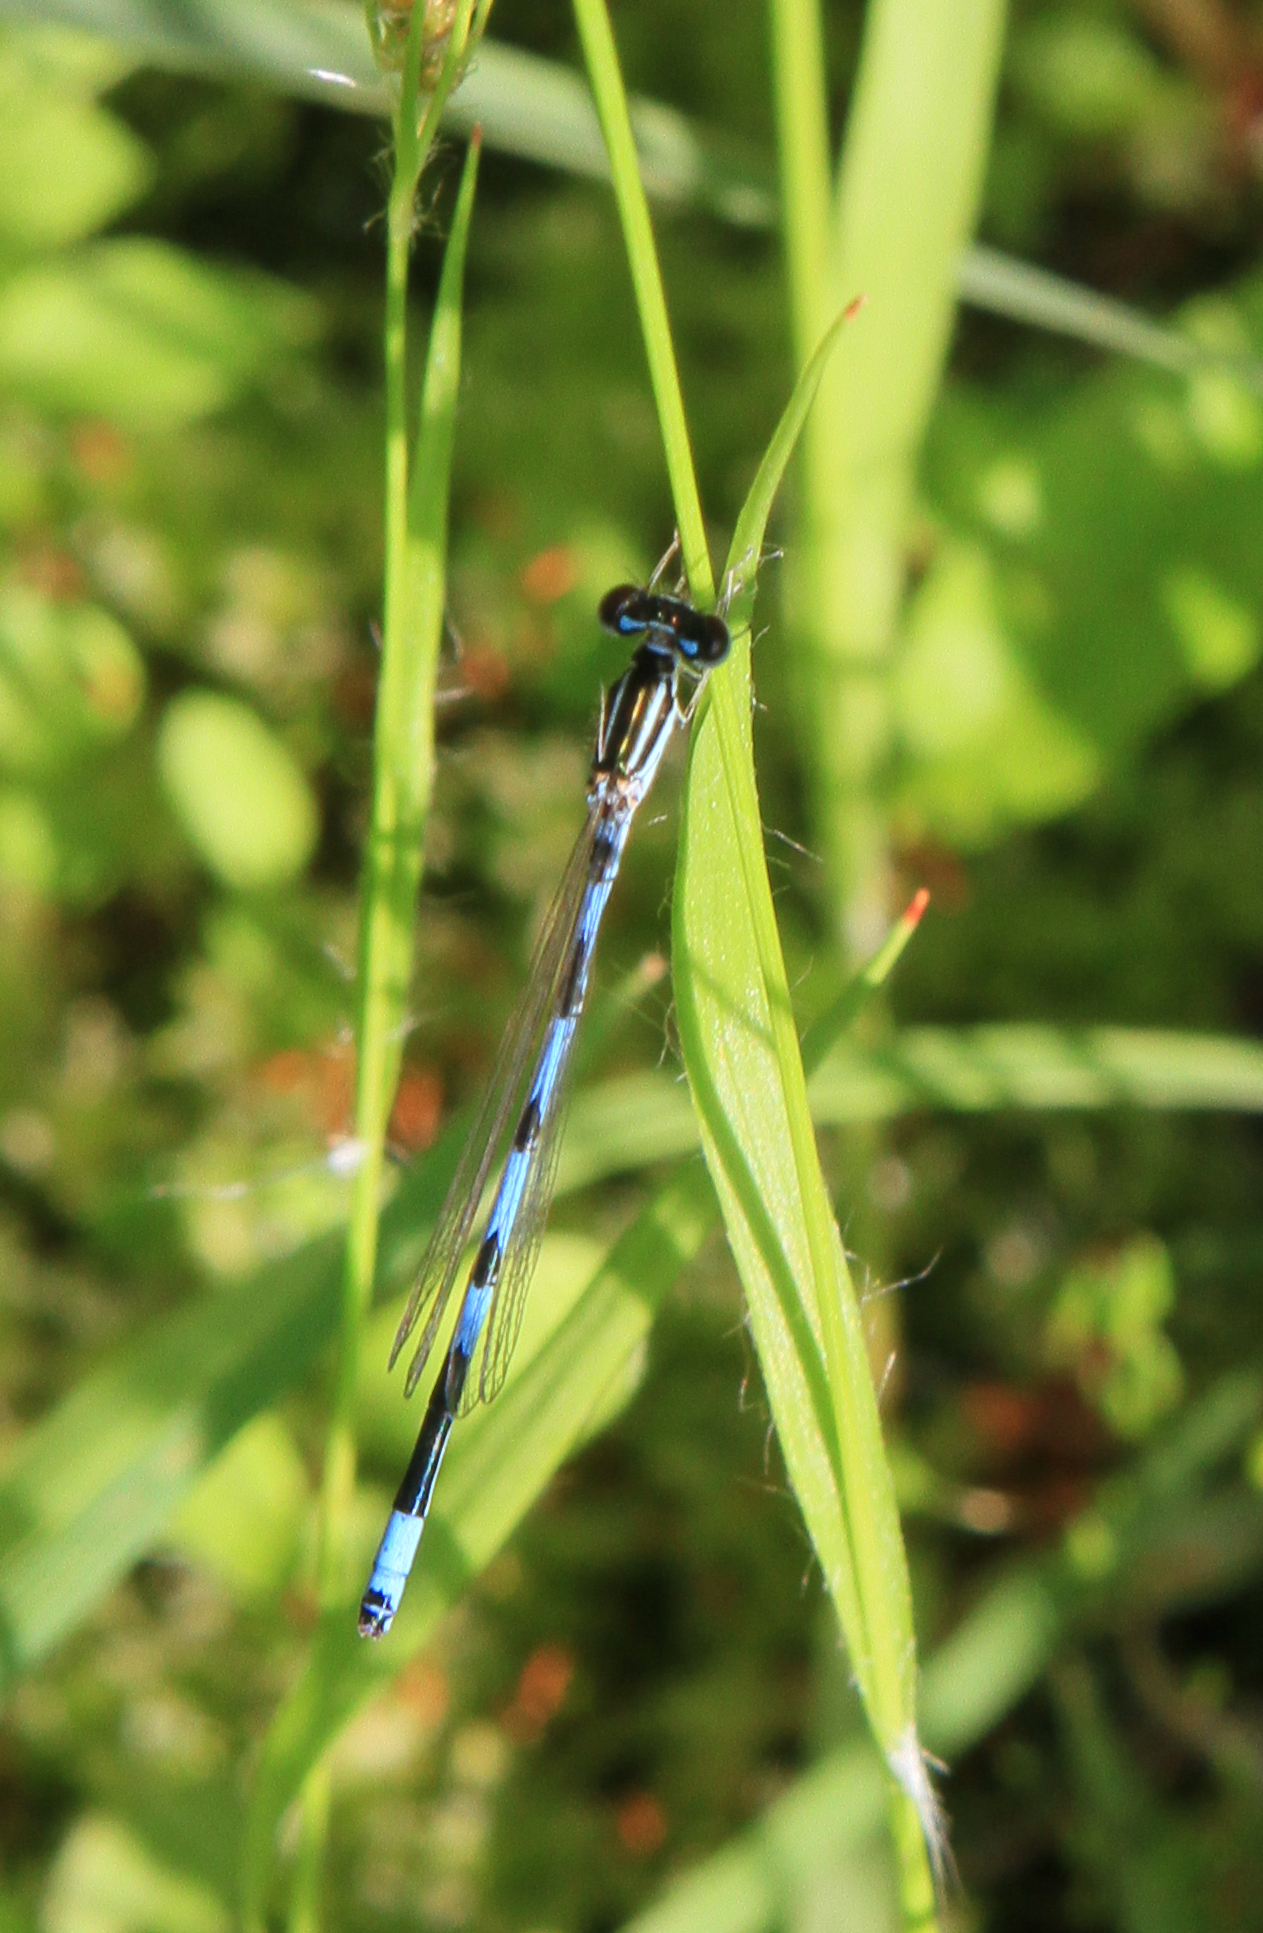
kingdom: Animalia
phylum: Arthropoda
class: Insecta
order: Odonata
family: Coenagrionidae
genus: Coenagrion
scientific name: Coenagrion ecornutum
